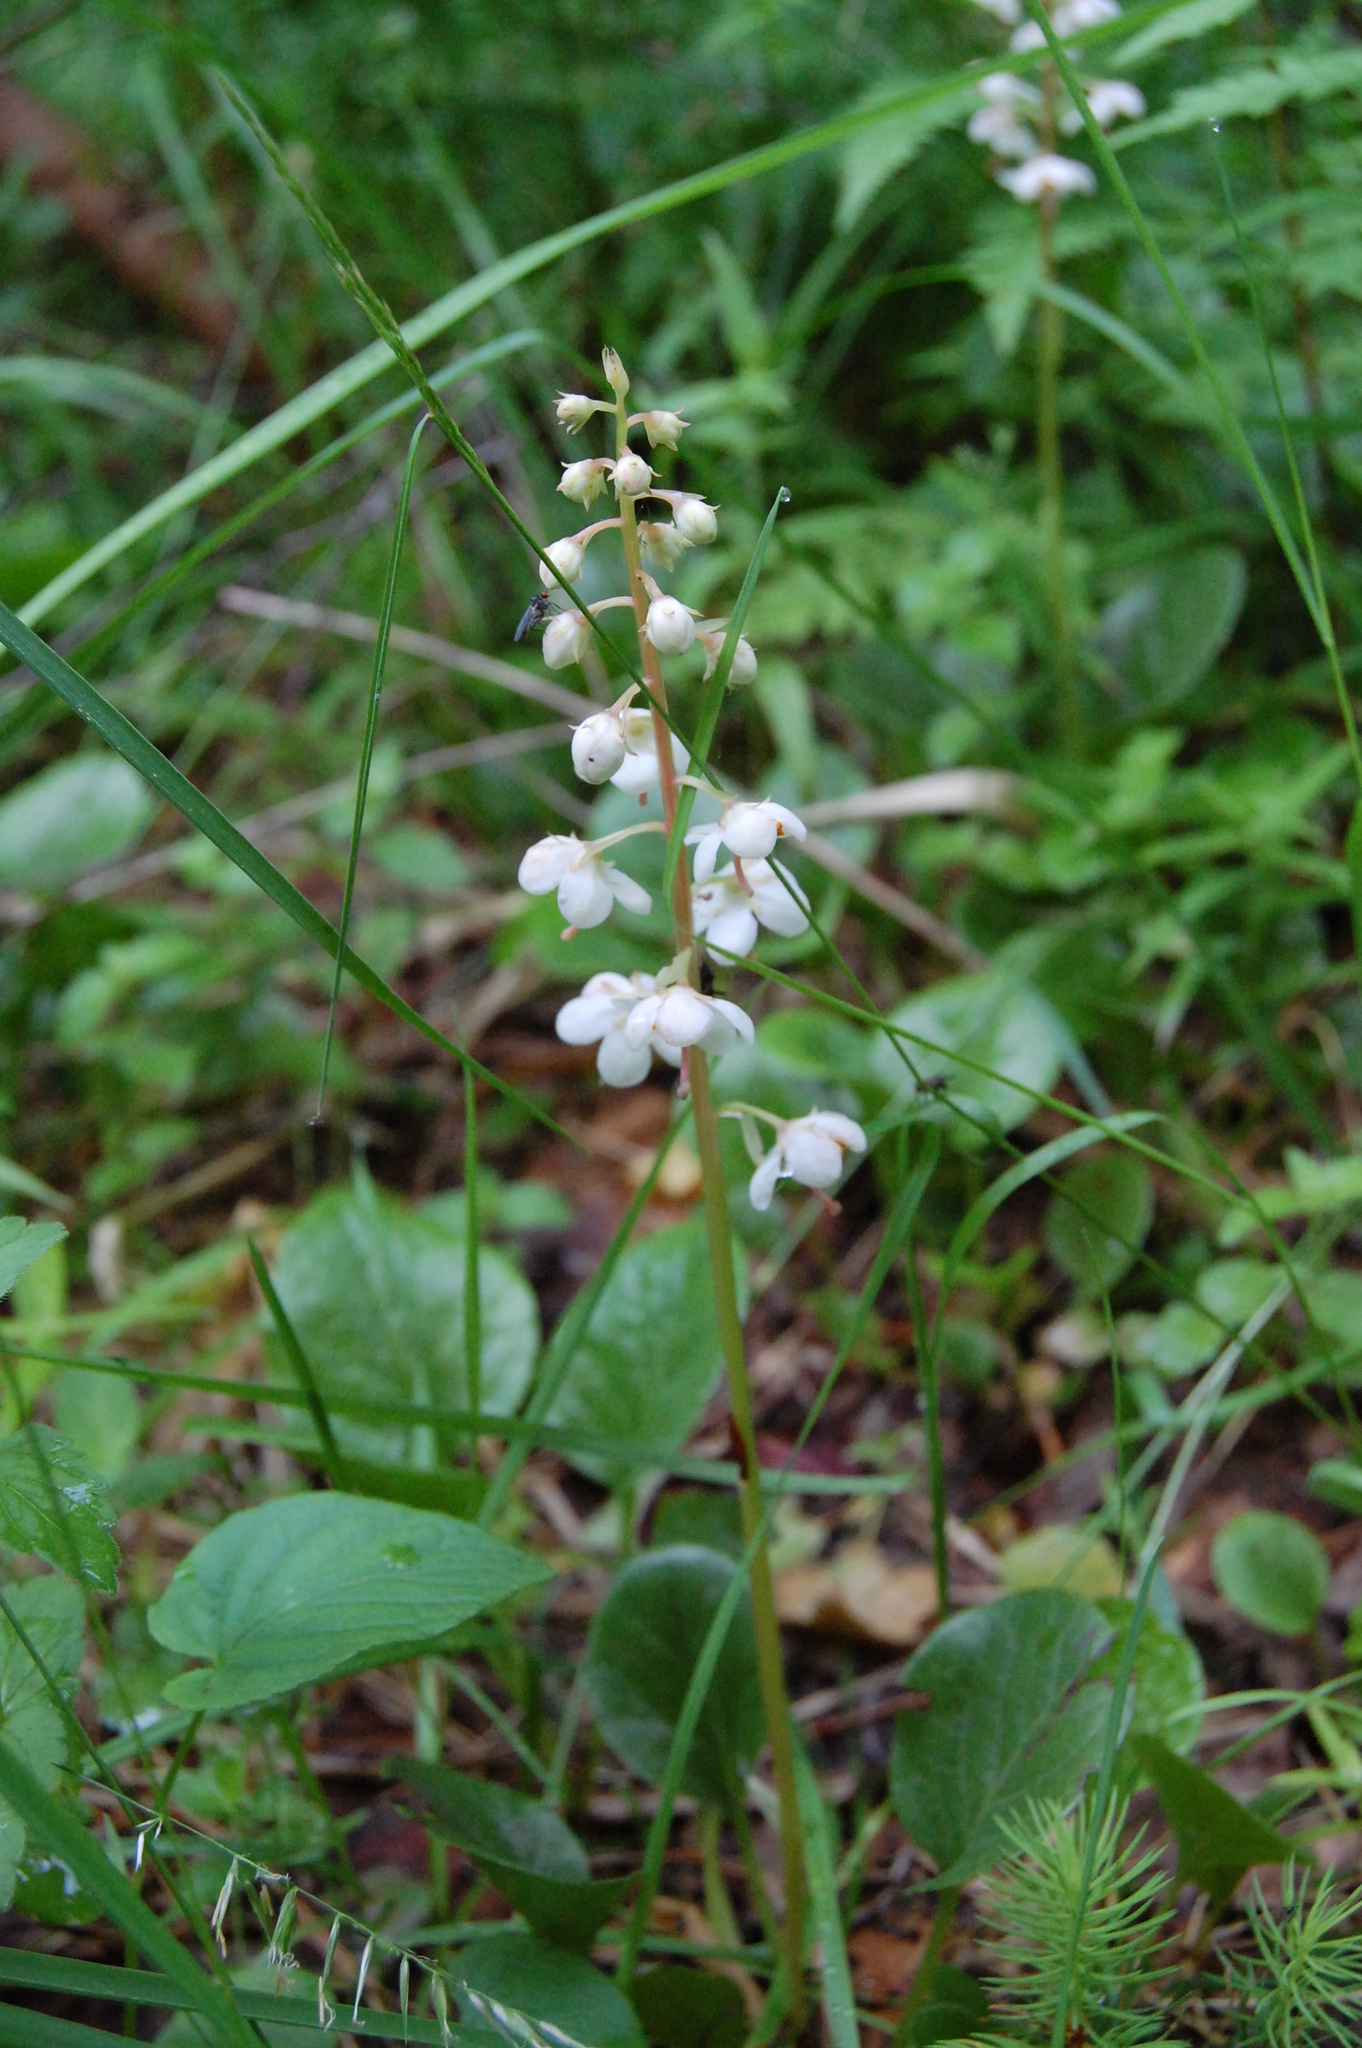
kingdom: Plantae
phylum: Tracheophyta
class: Magnoliopsida
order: Ericales
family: Ericaceae
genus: Pyrola
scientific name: Pyrola rotundifolia
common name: Round-leaved wintergreen
